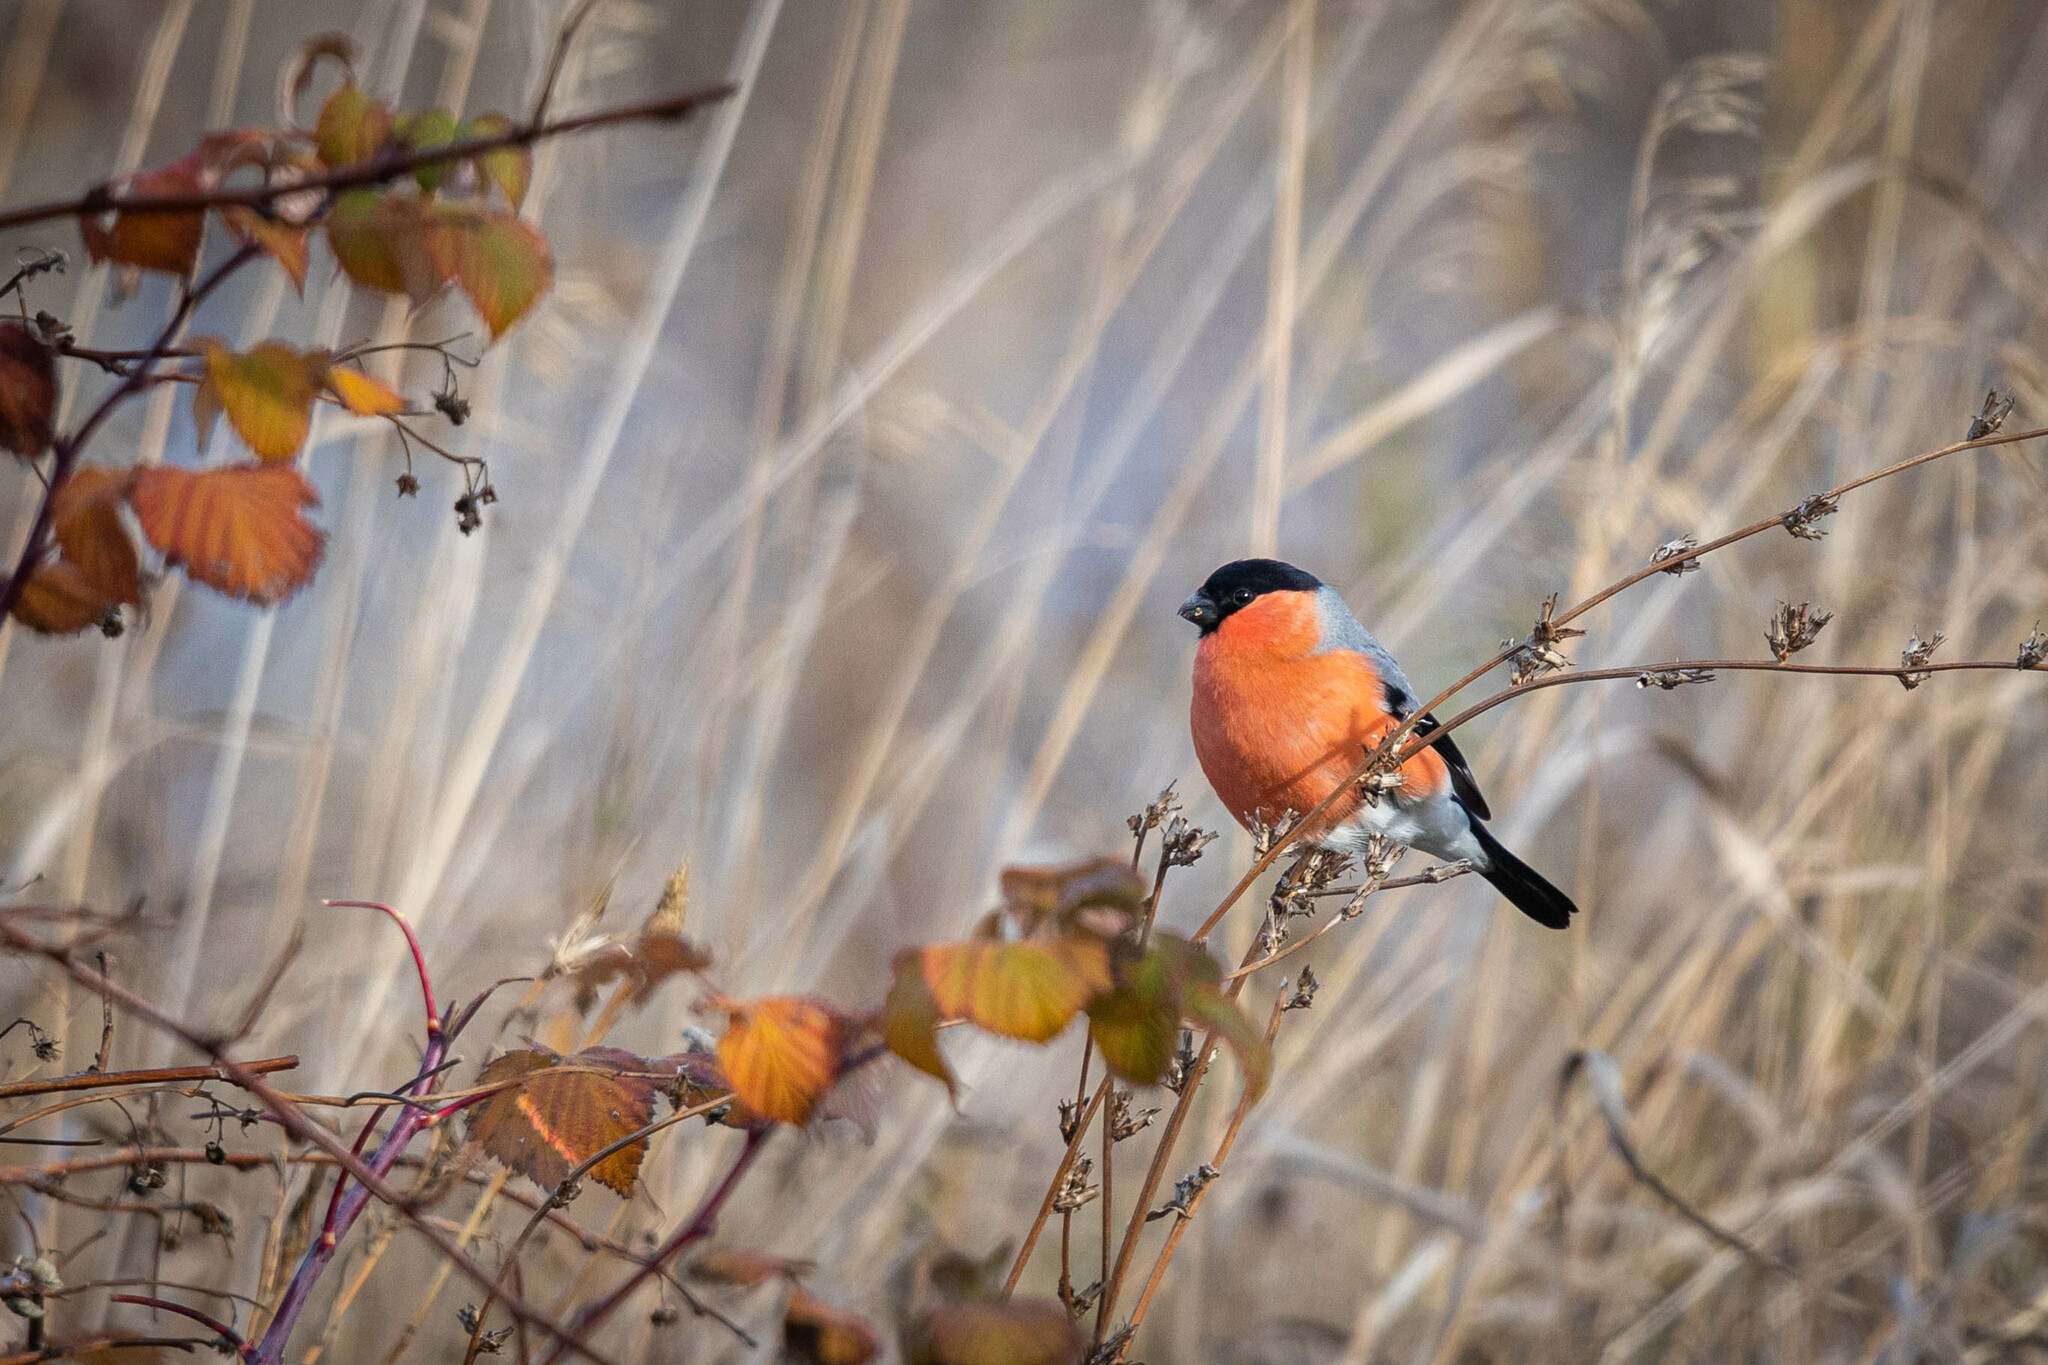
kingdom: Animalia
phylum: Chordata
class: Aves
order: Passeriformes
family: Fringillidae
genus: Pyrrhula
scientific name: Pyrrhula pyrrhula
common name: Eurasian bullfinch
